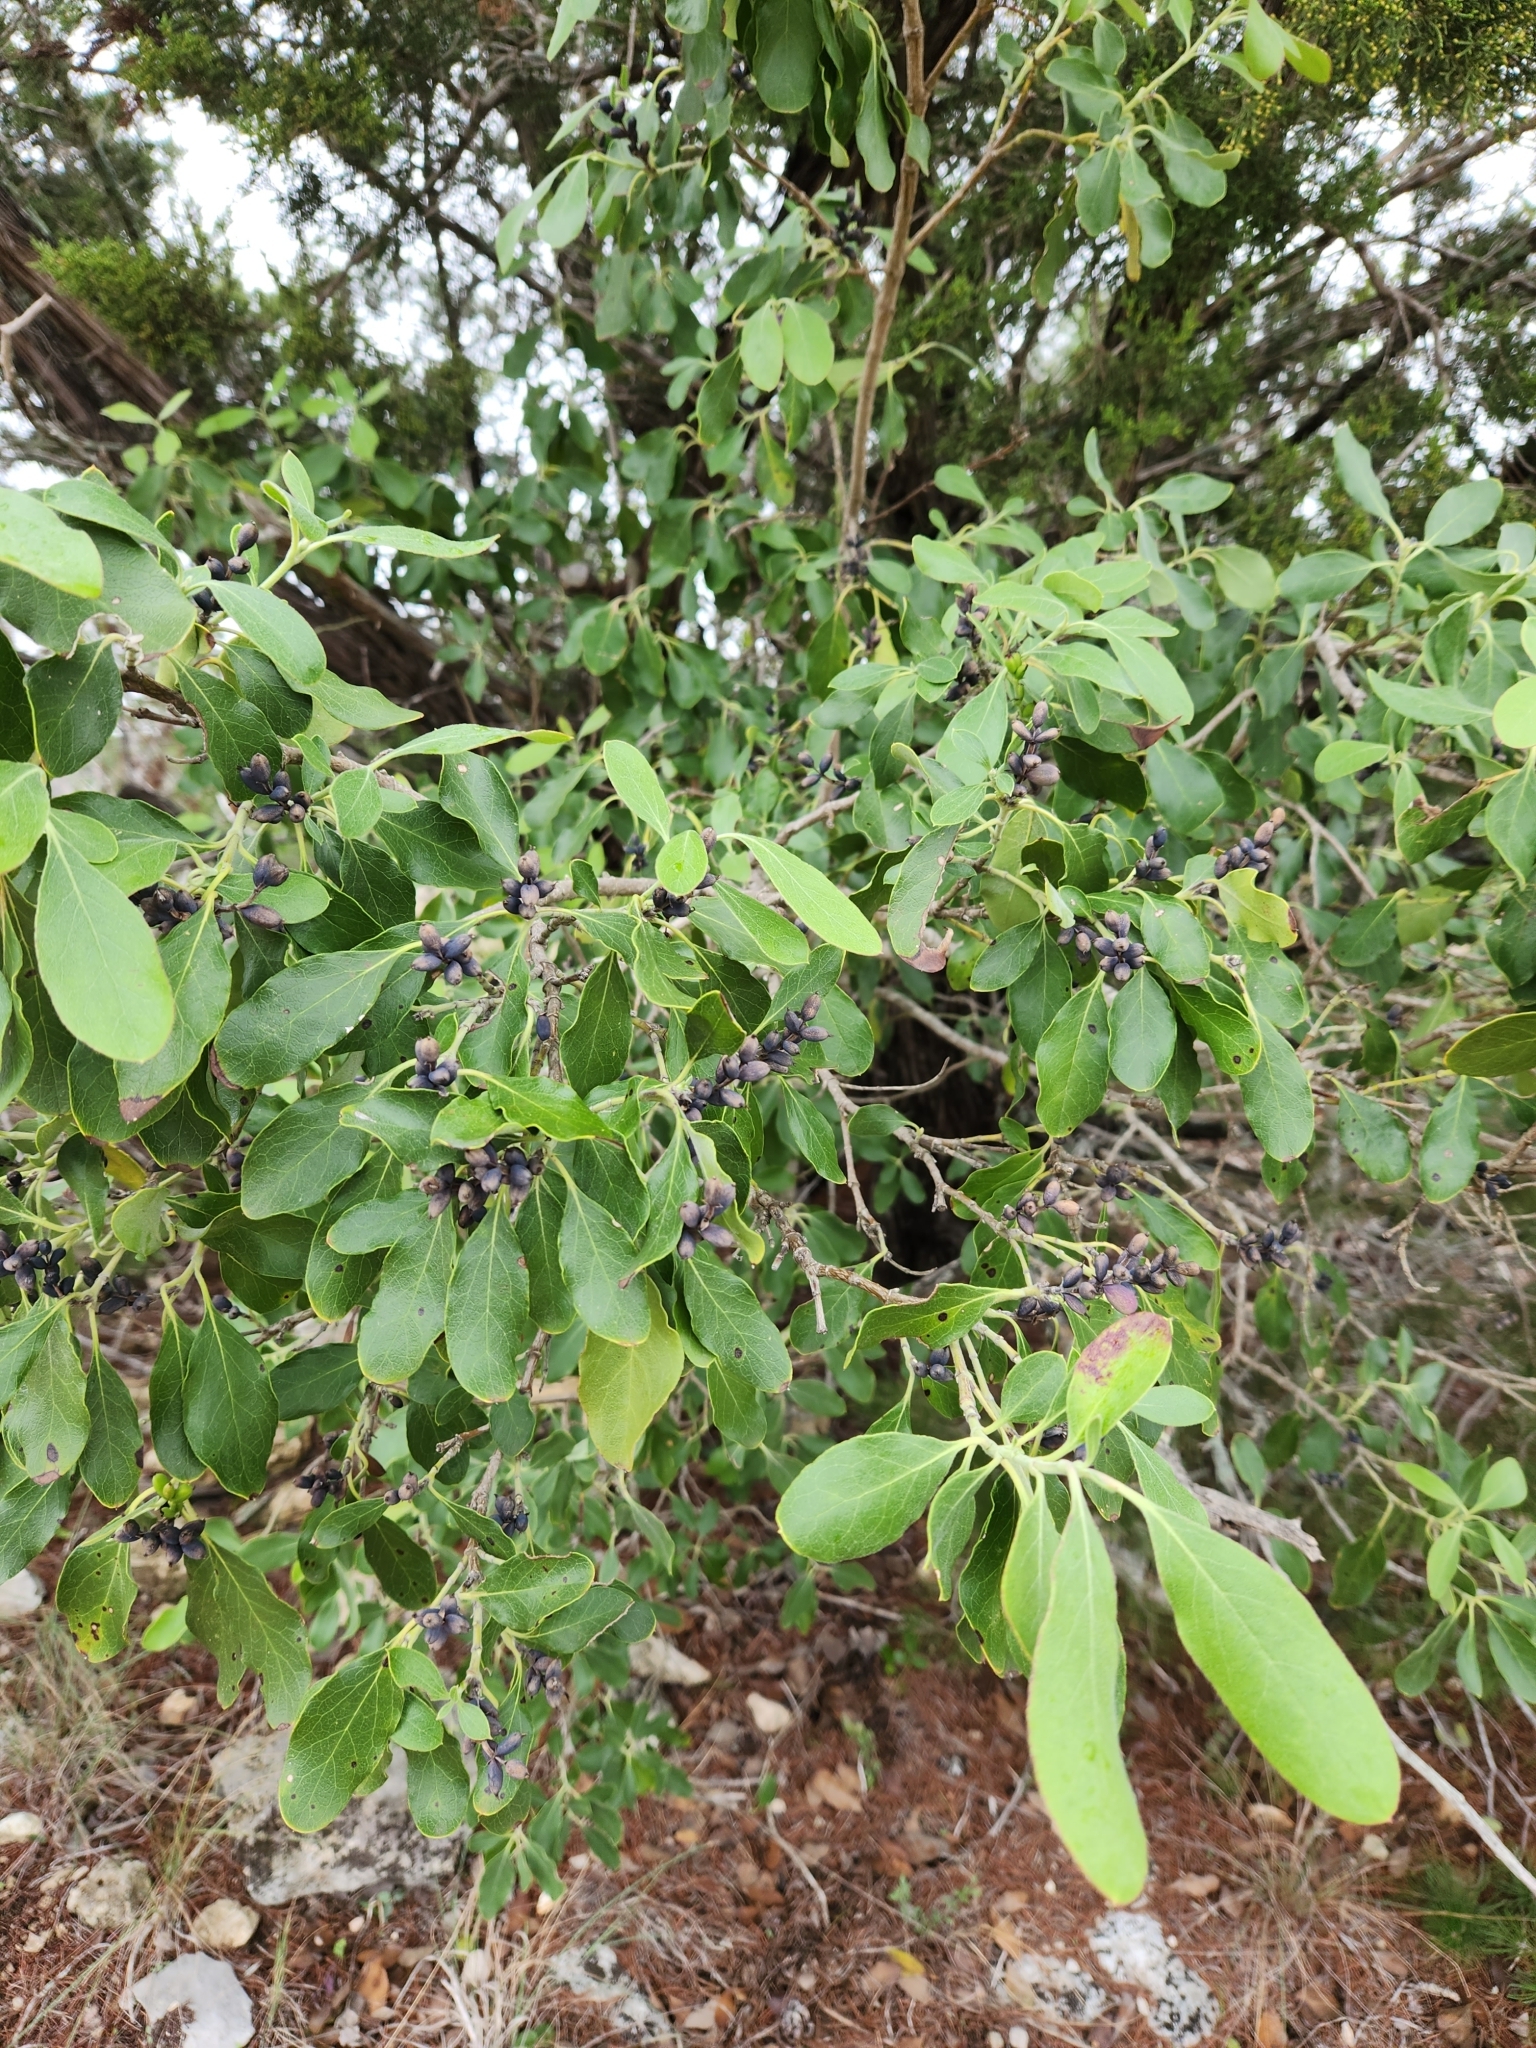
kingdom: Plantae
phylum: Tracheophyta
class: Magnoliopsida
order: Garryales
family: Garryaceae
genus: Garrya
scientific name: Garrya lindheimeri
